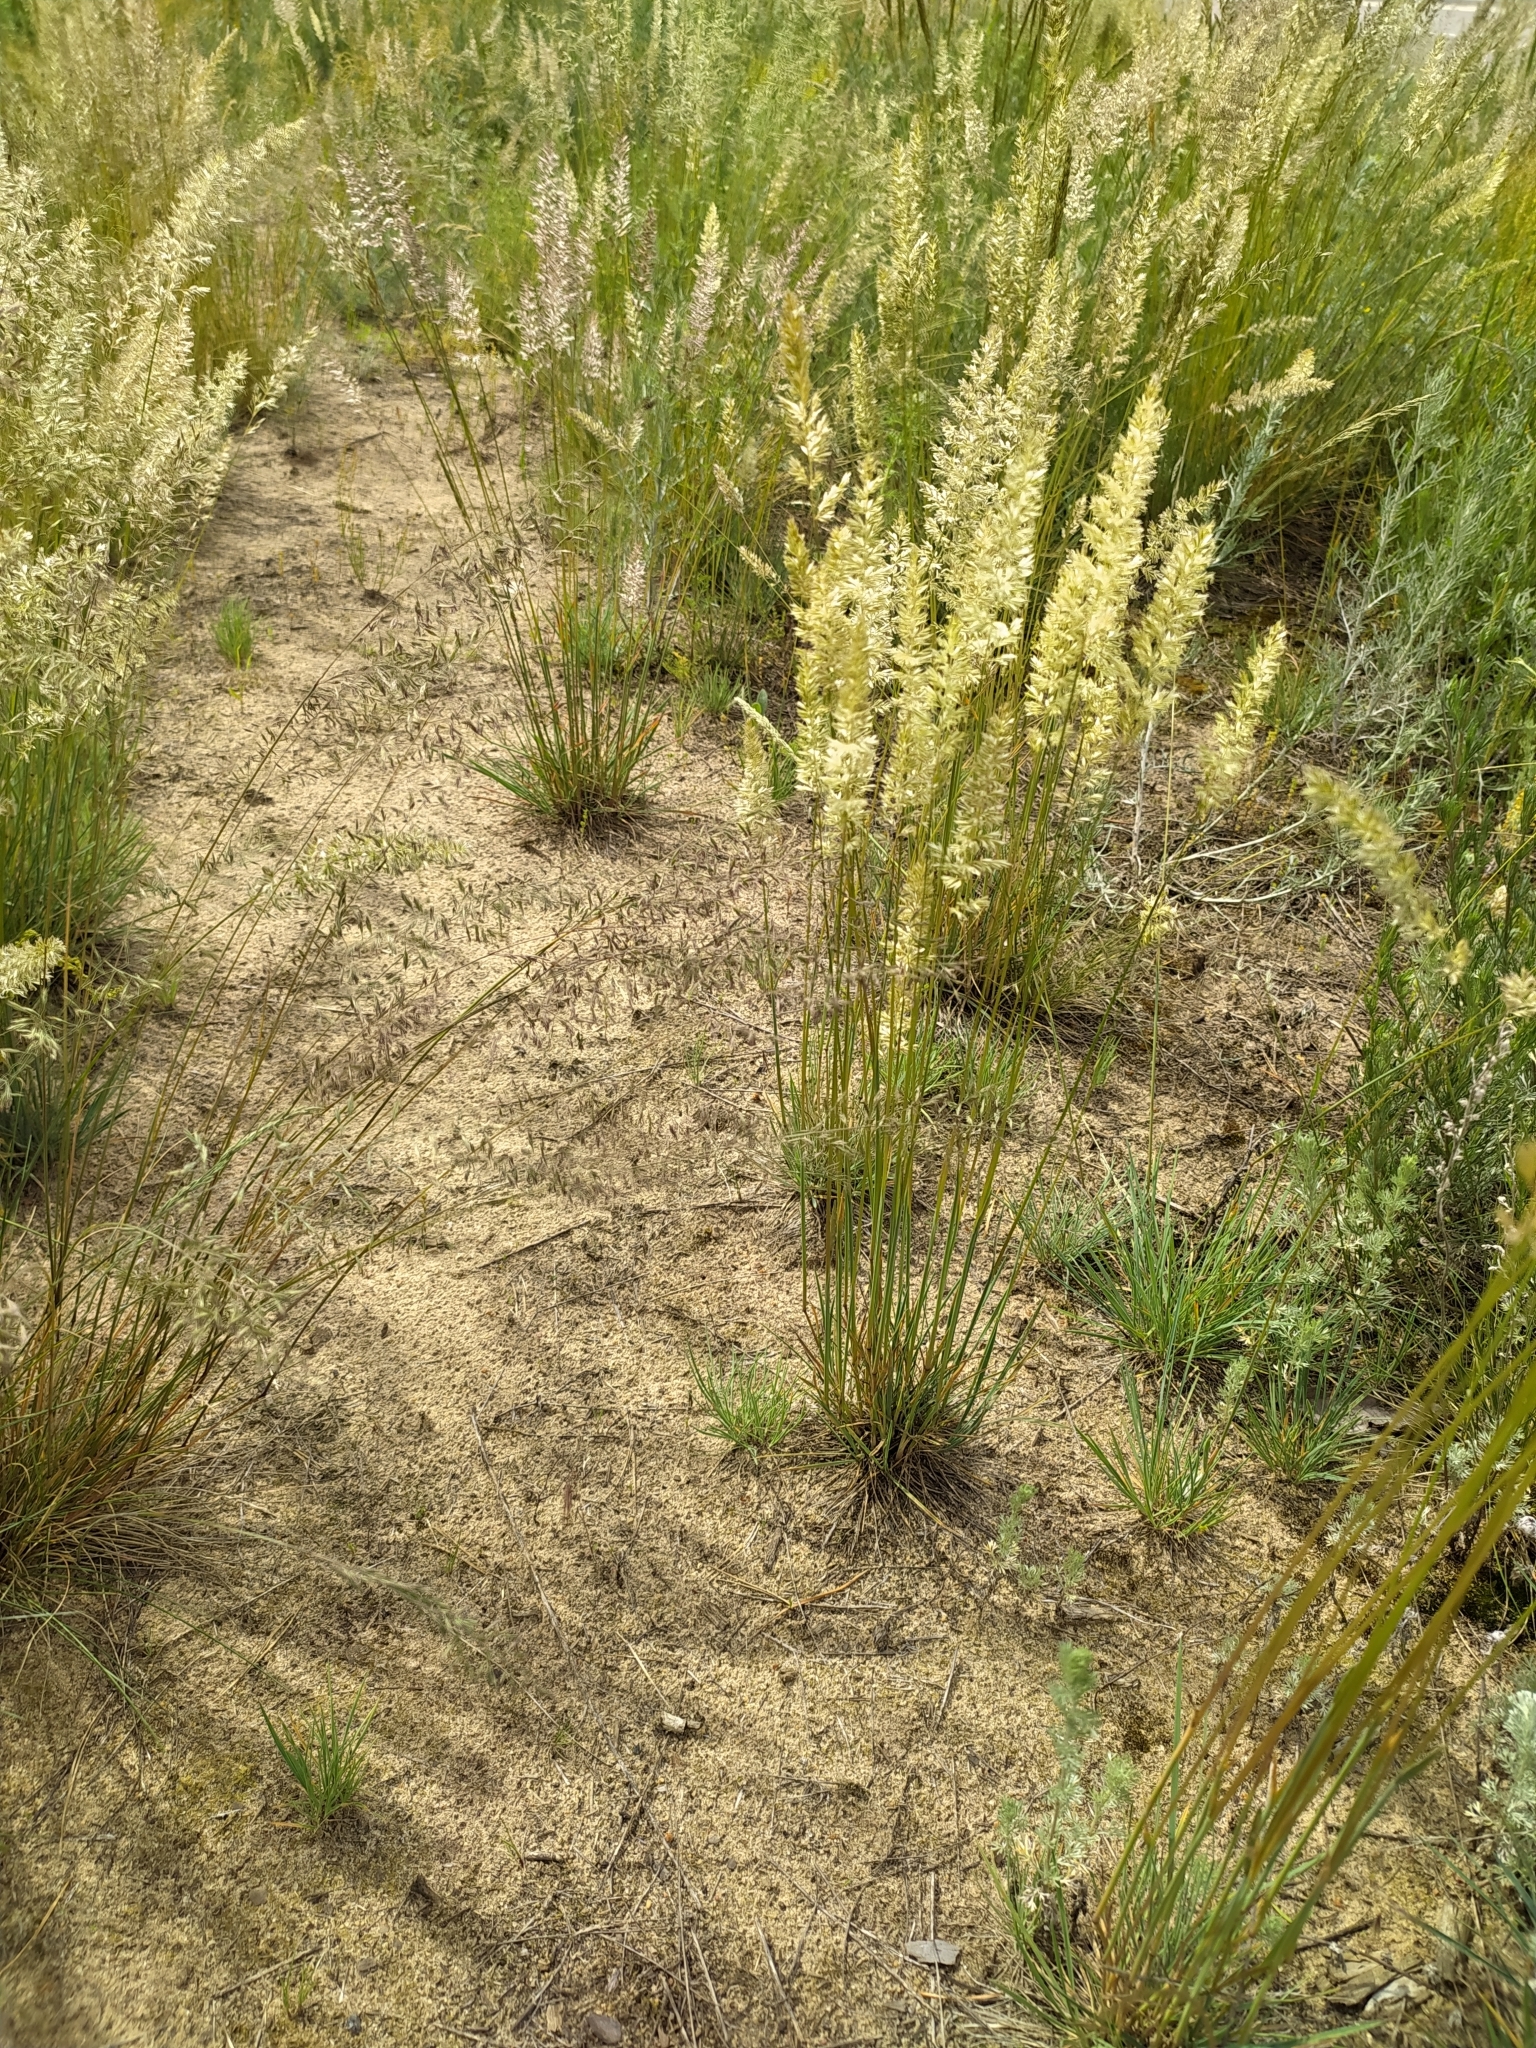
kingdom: Plantae
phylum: Tracheophyta
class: Liliopsida
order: Poales
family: Poaceae
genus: Koeleria
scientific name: Koeleria macrantha
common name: Crested hair-grass
